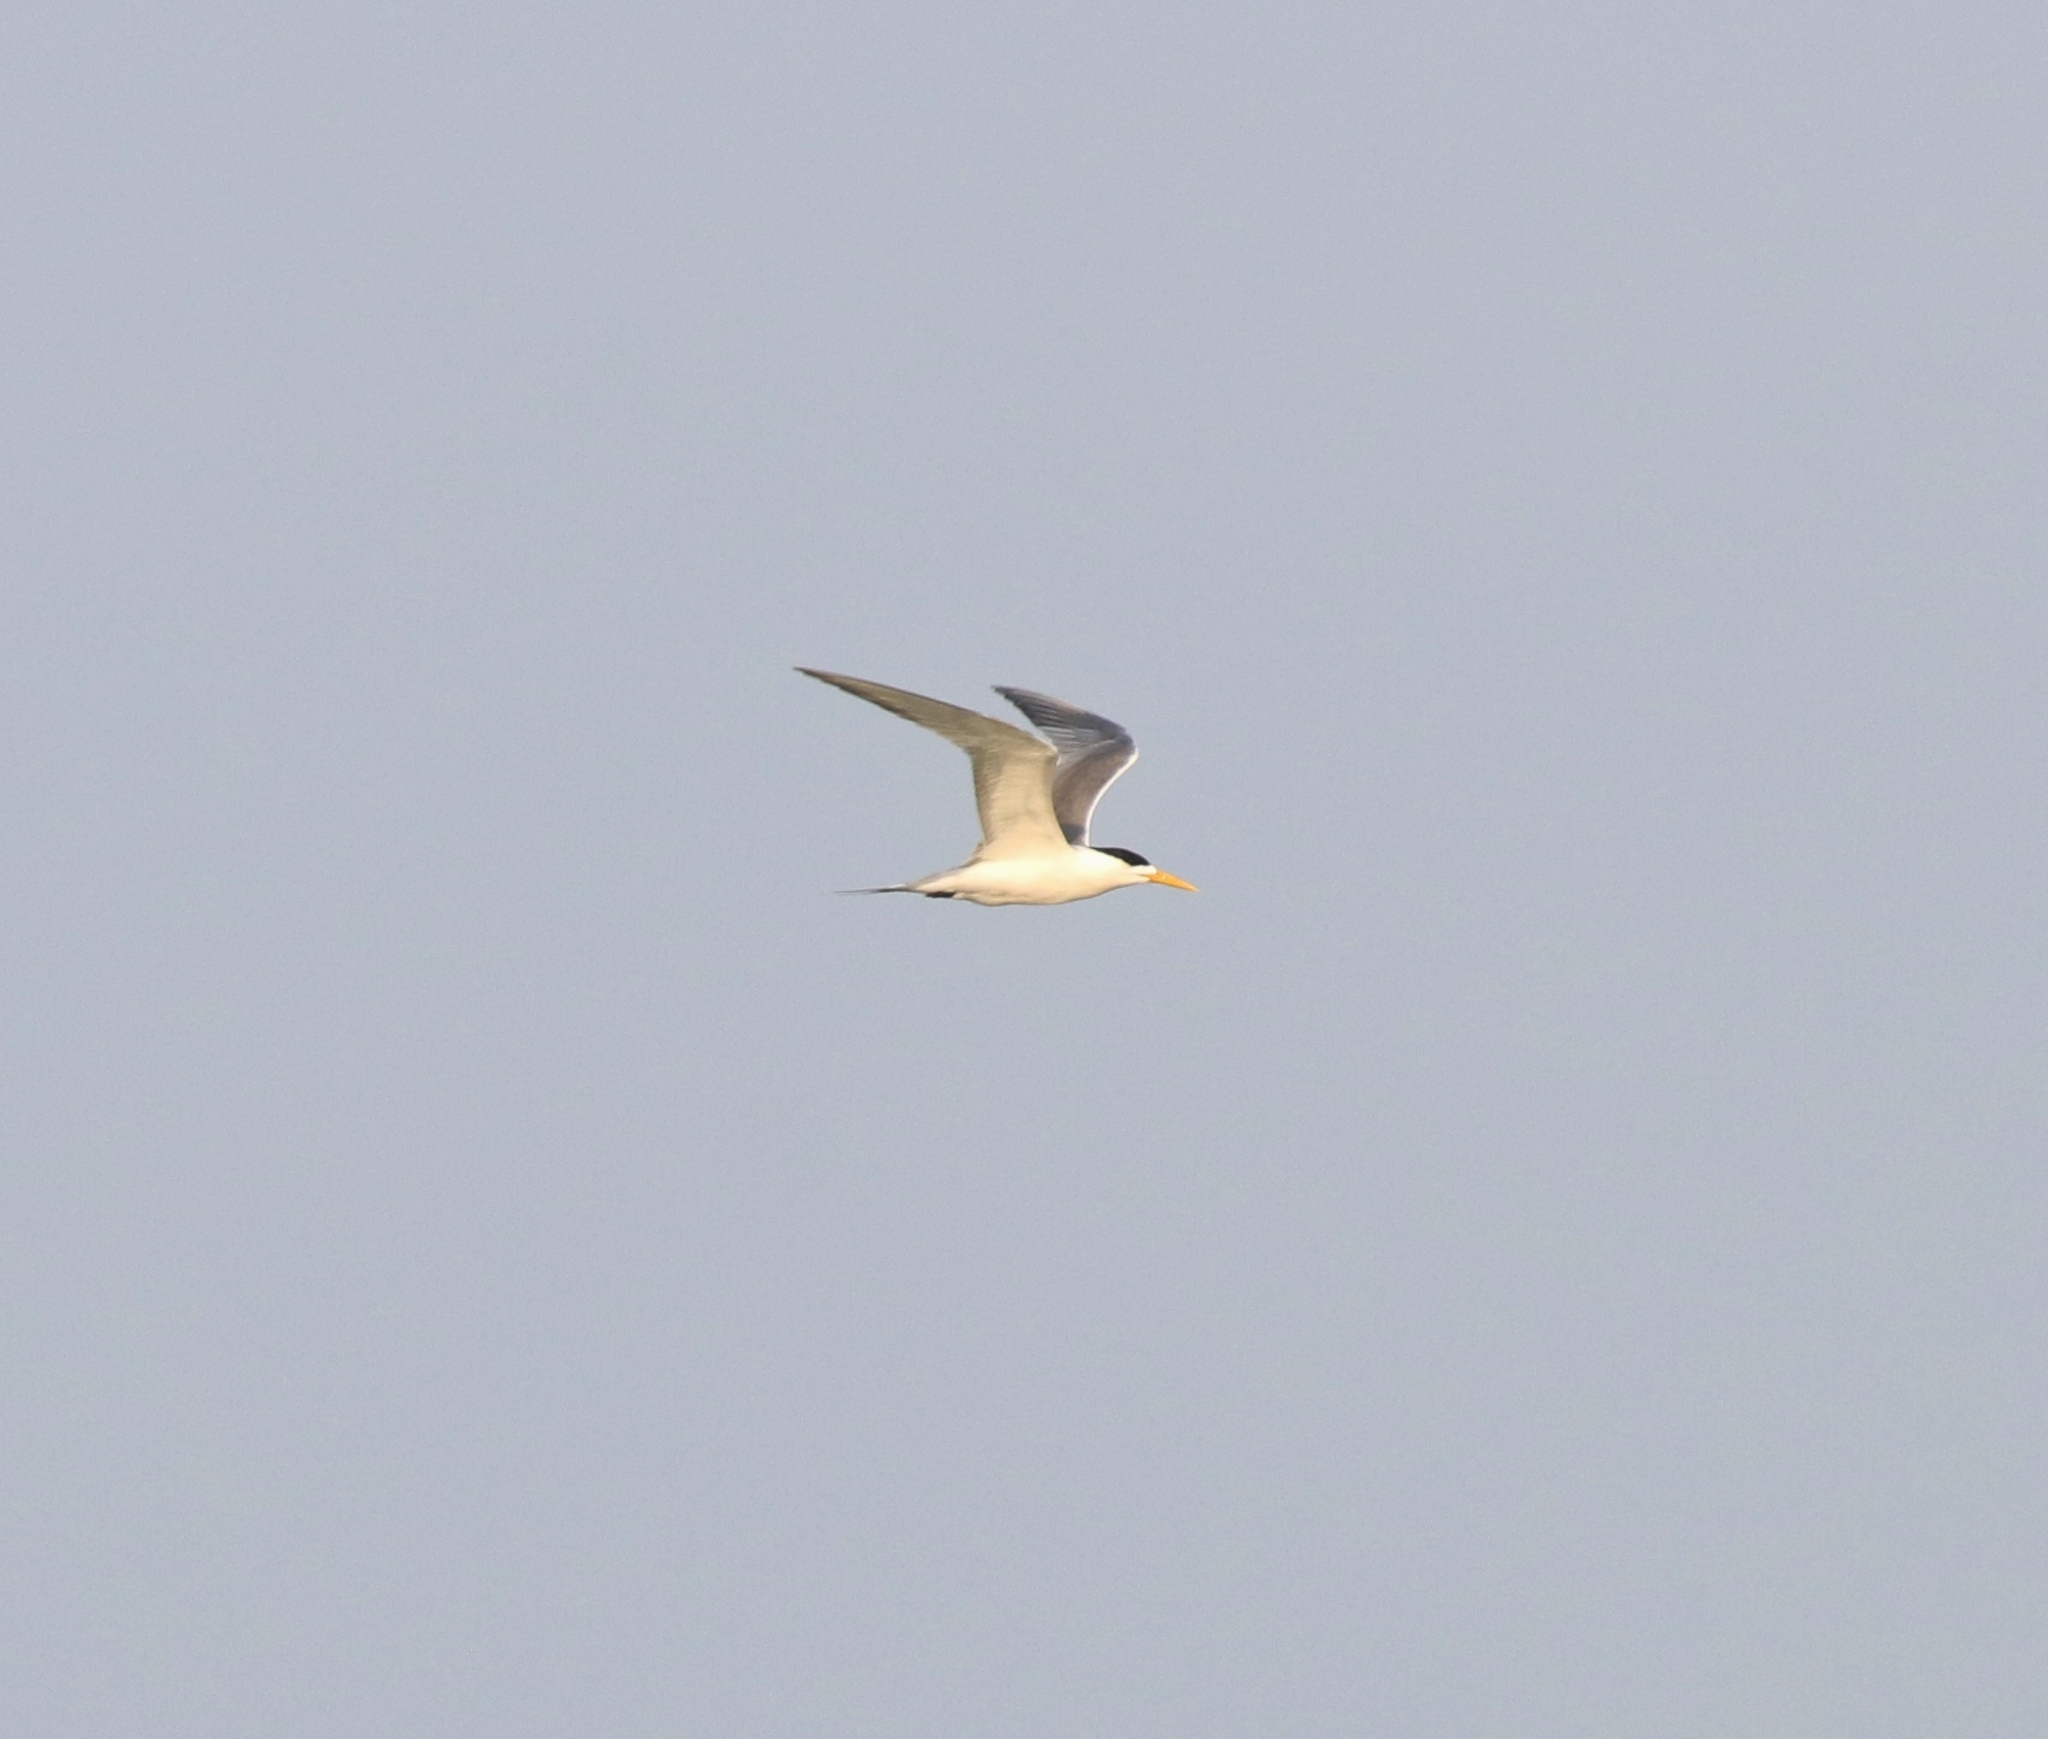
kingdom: Animalia
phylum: Chordata
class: Aves
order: Charadriiformes
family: Laridae
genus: Thalasseus
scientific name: Thalasseus bergii
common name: Greater crested tern
